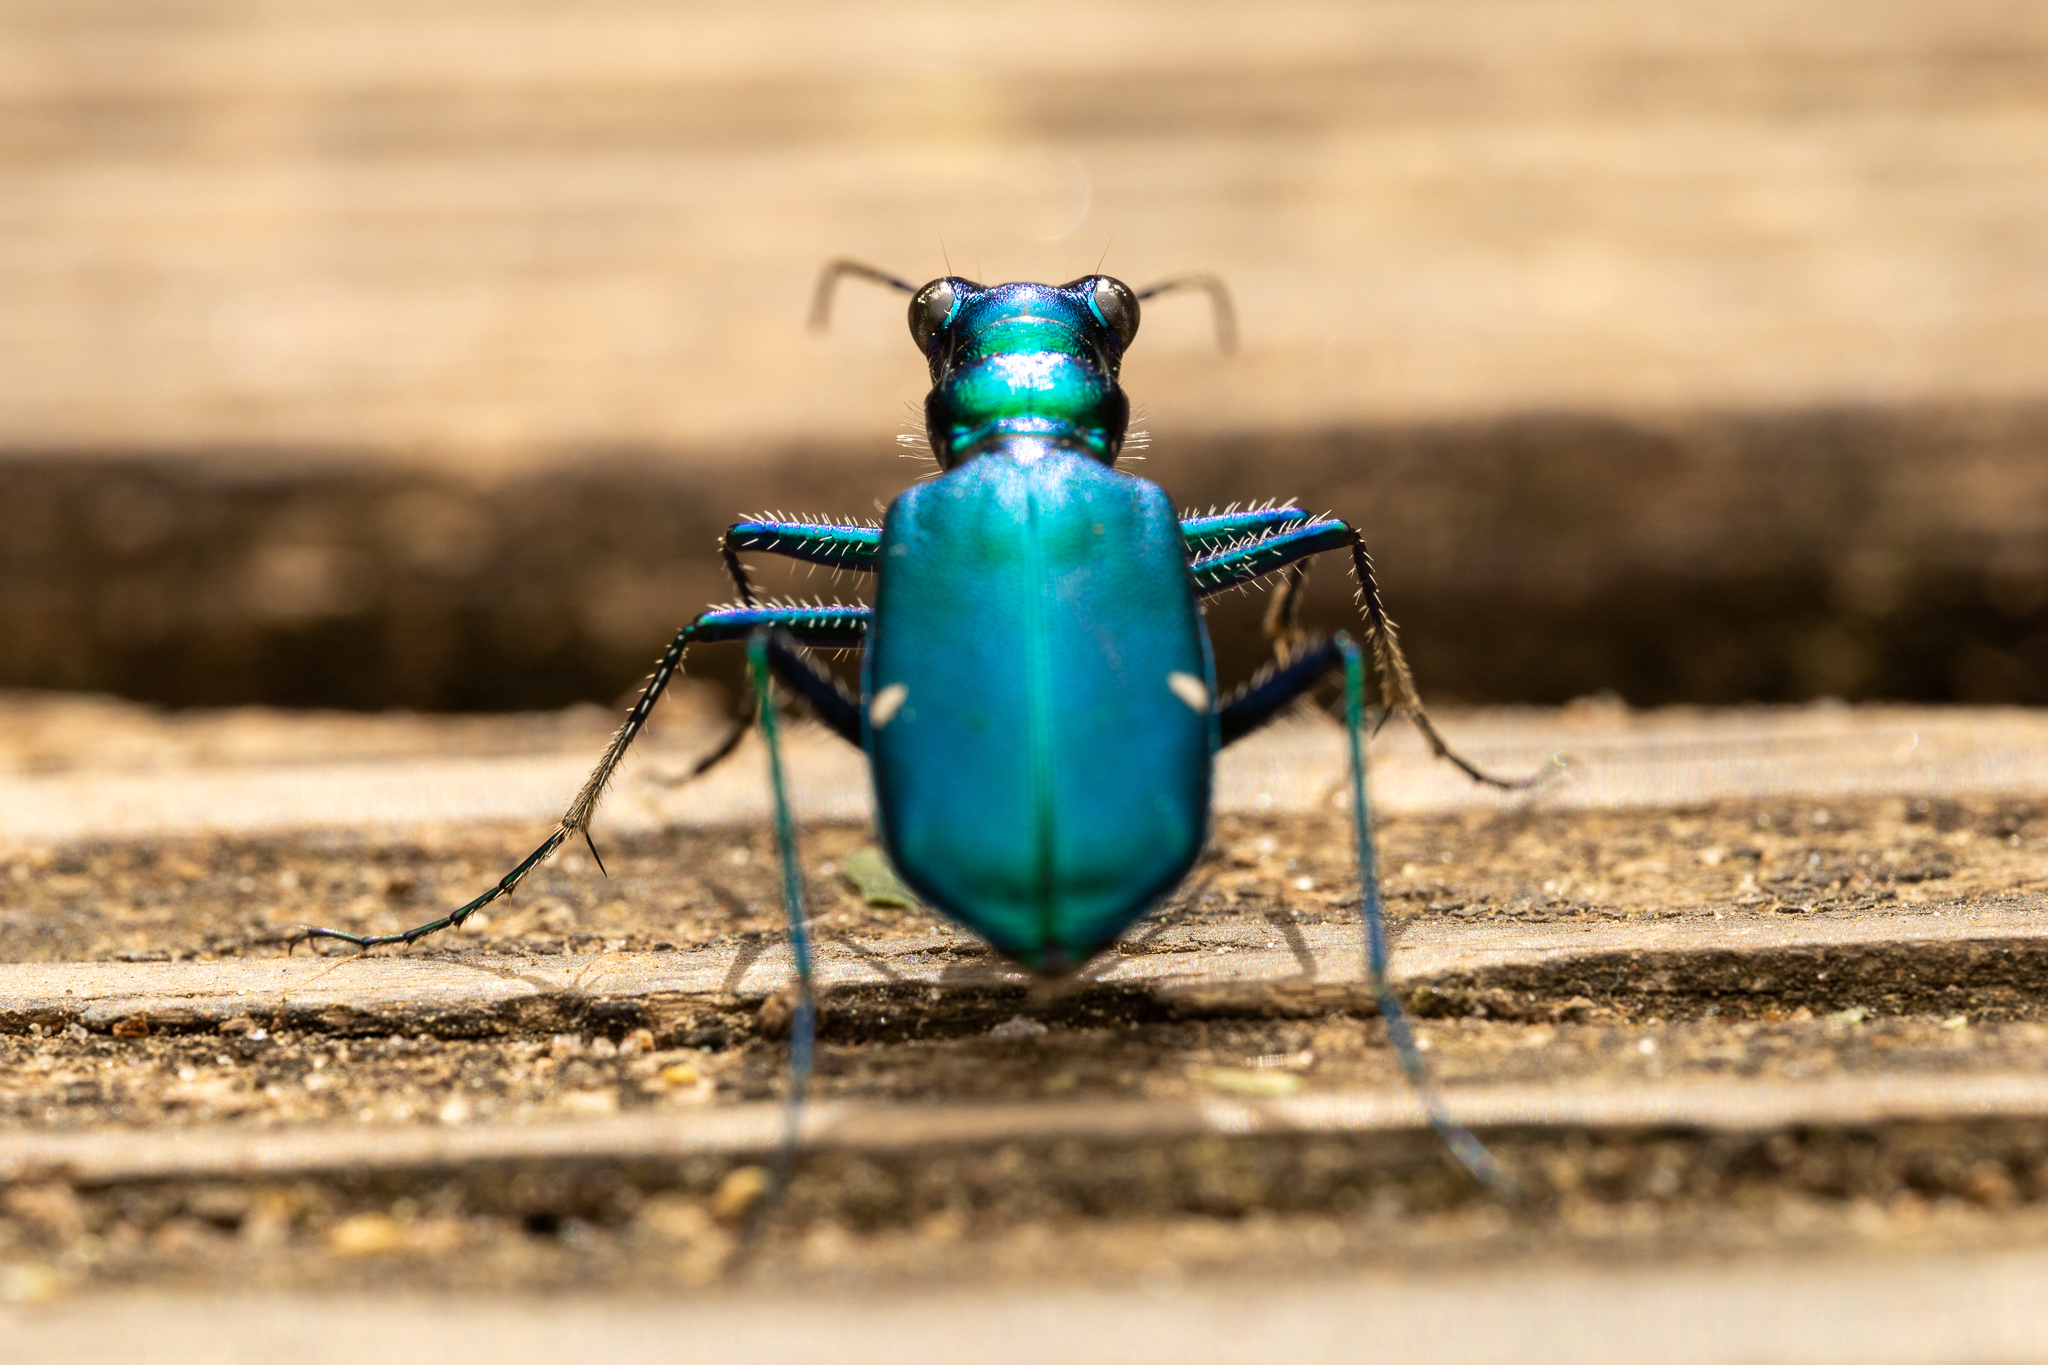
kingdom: Animalia
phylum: Arthropoda
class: Insecta
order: Coleoptera
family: Carabidae
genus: Cicindela
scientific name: Cicindela sexguttata
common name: Six-spotted tiger beetle
